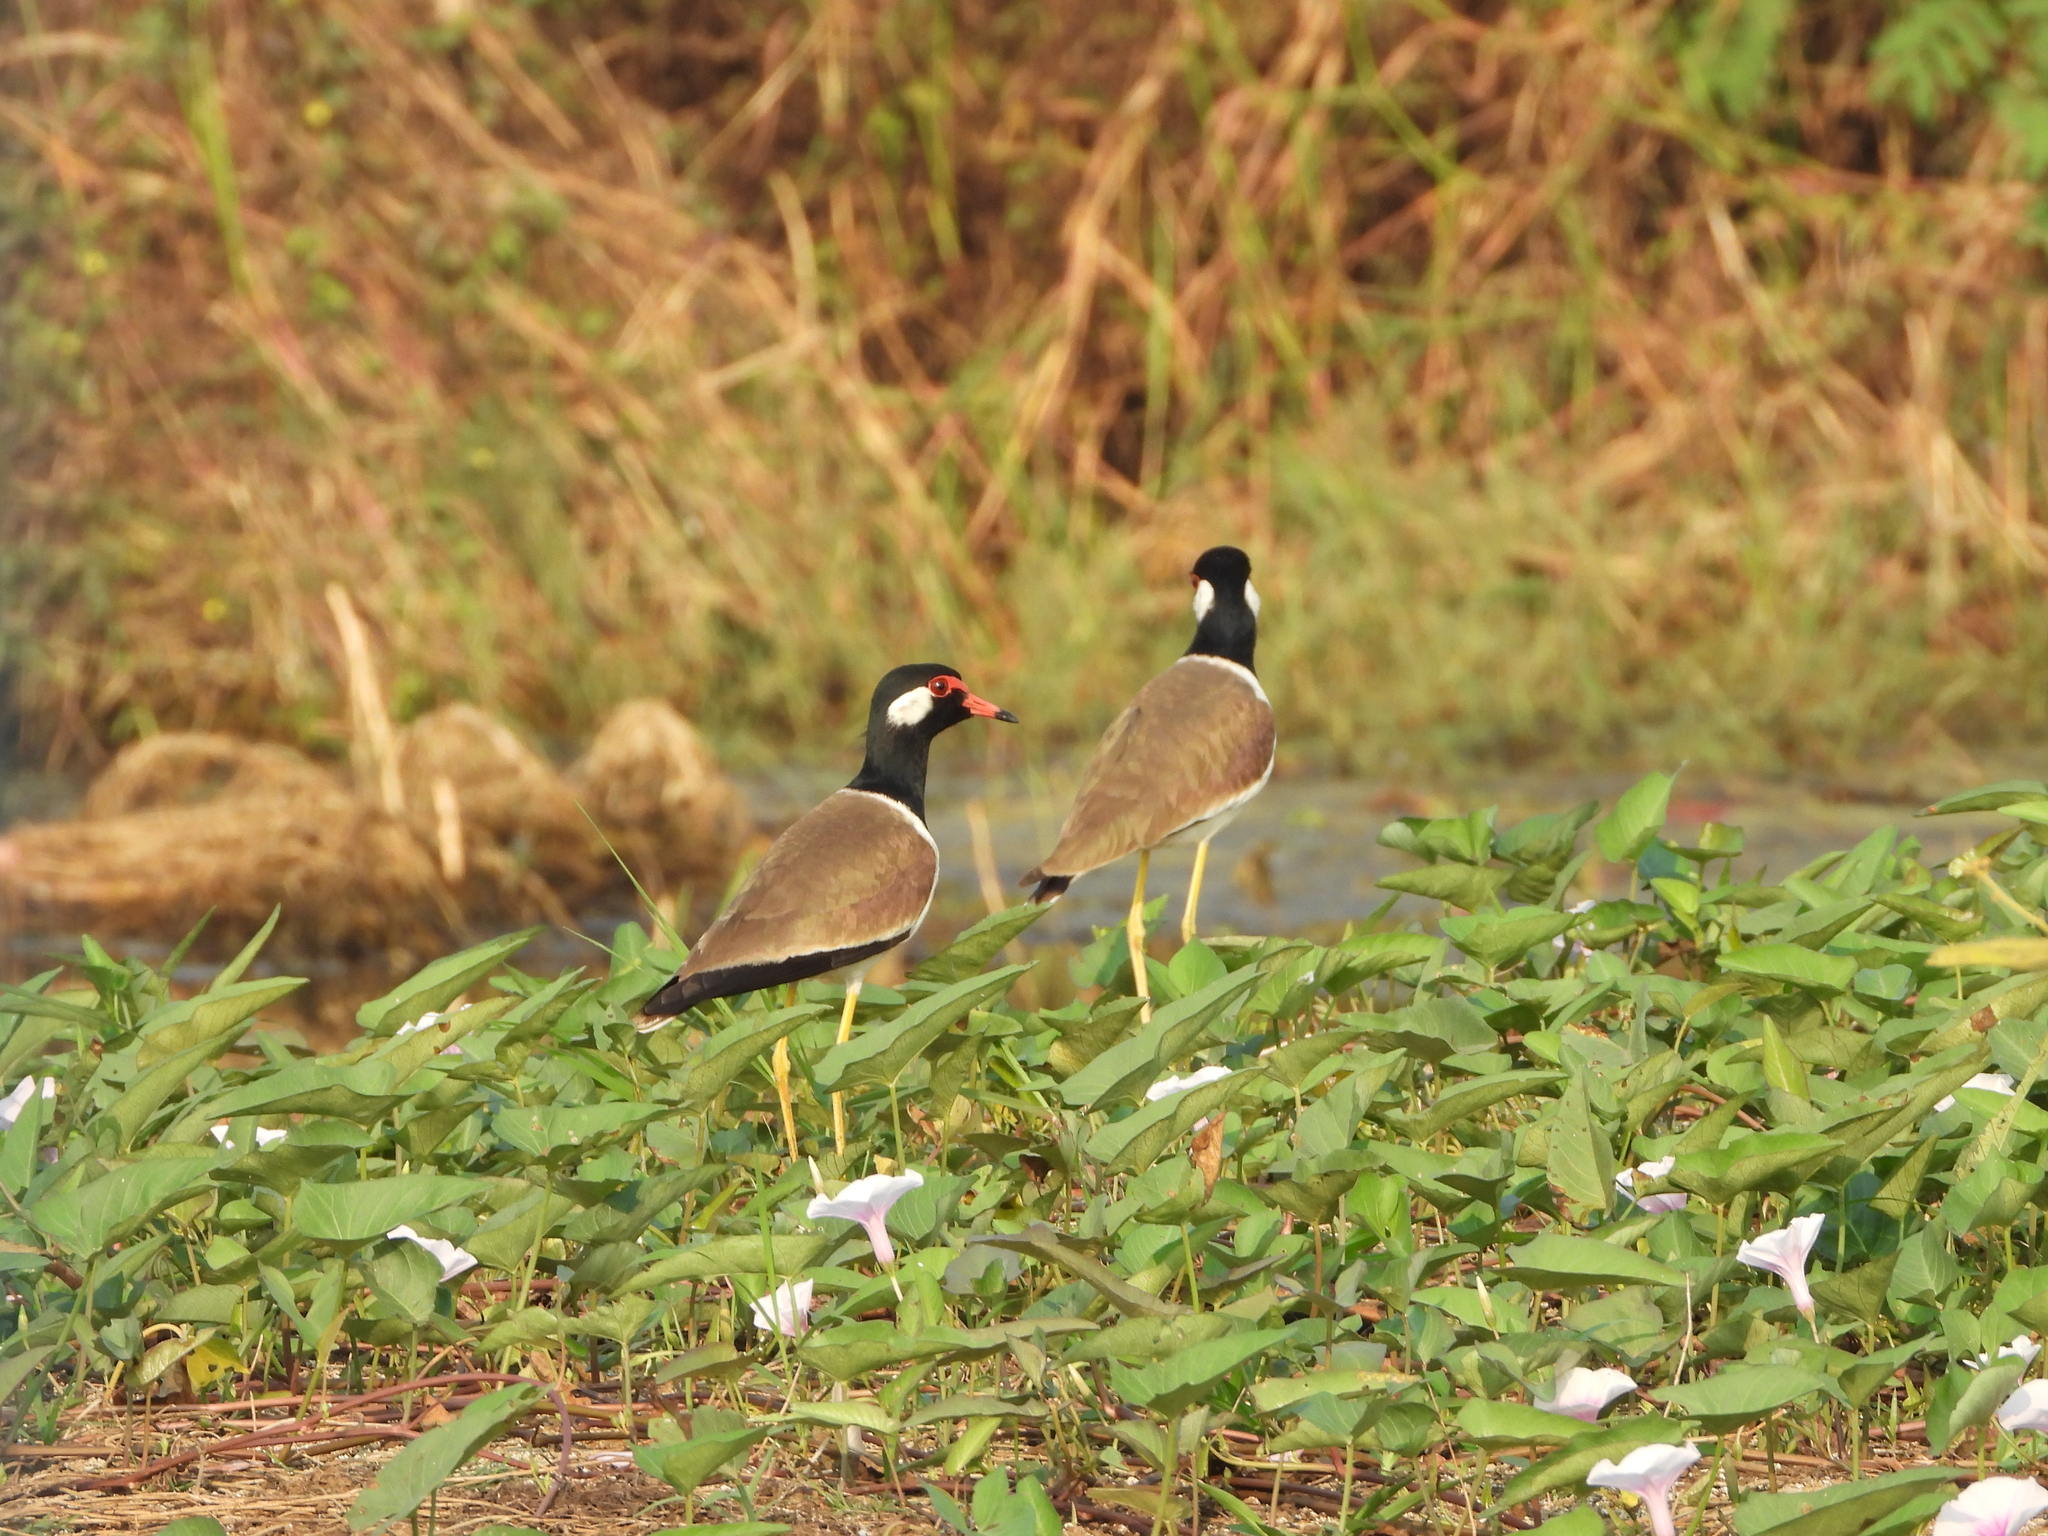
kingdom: Animalia
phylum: Chordata
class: Aves
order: Charadriiformes
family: Charadriidae
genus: Vanellus
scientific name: Vanellus indicus
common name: Red-wattled lapwing
